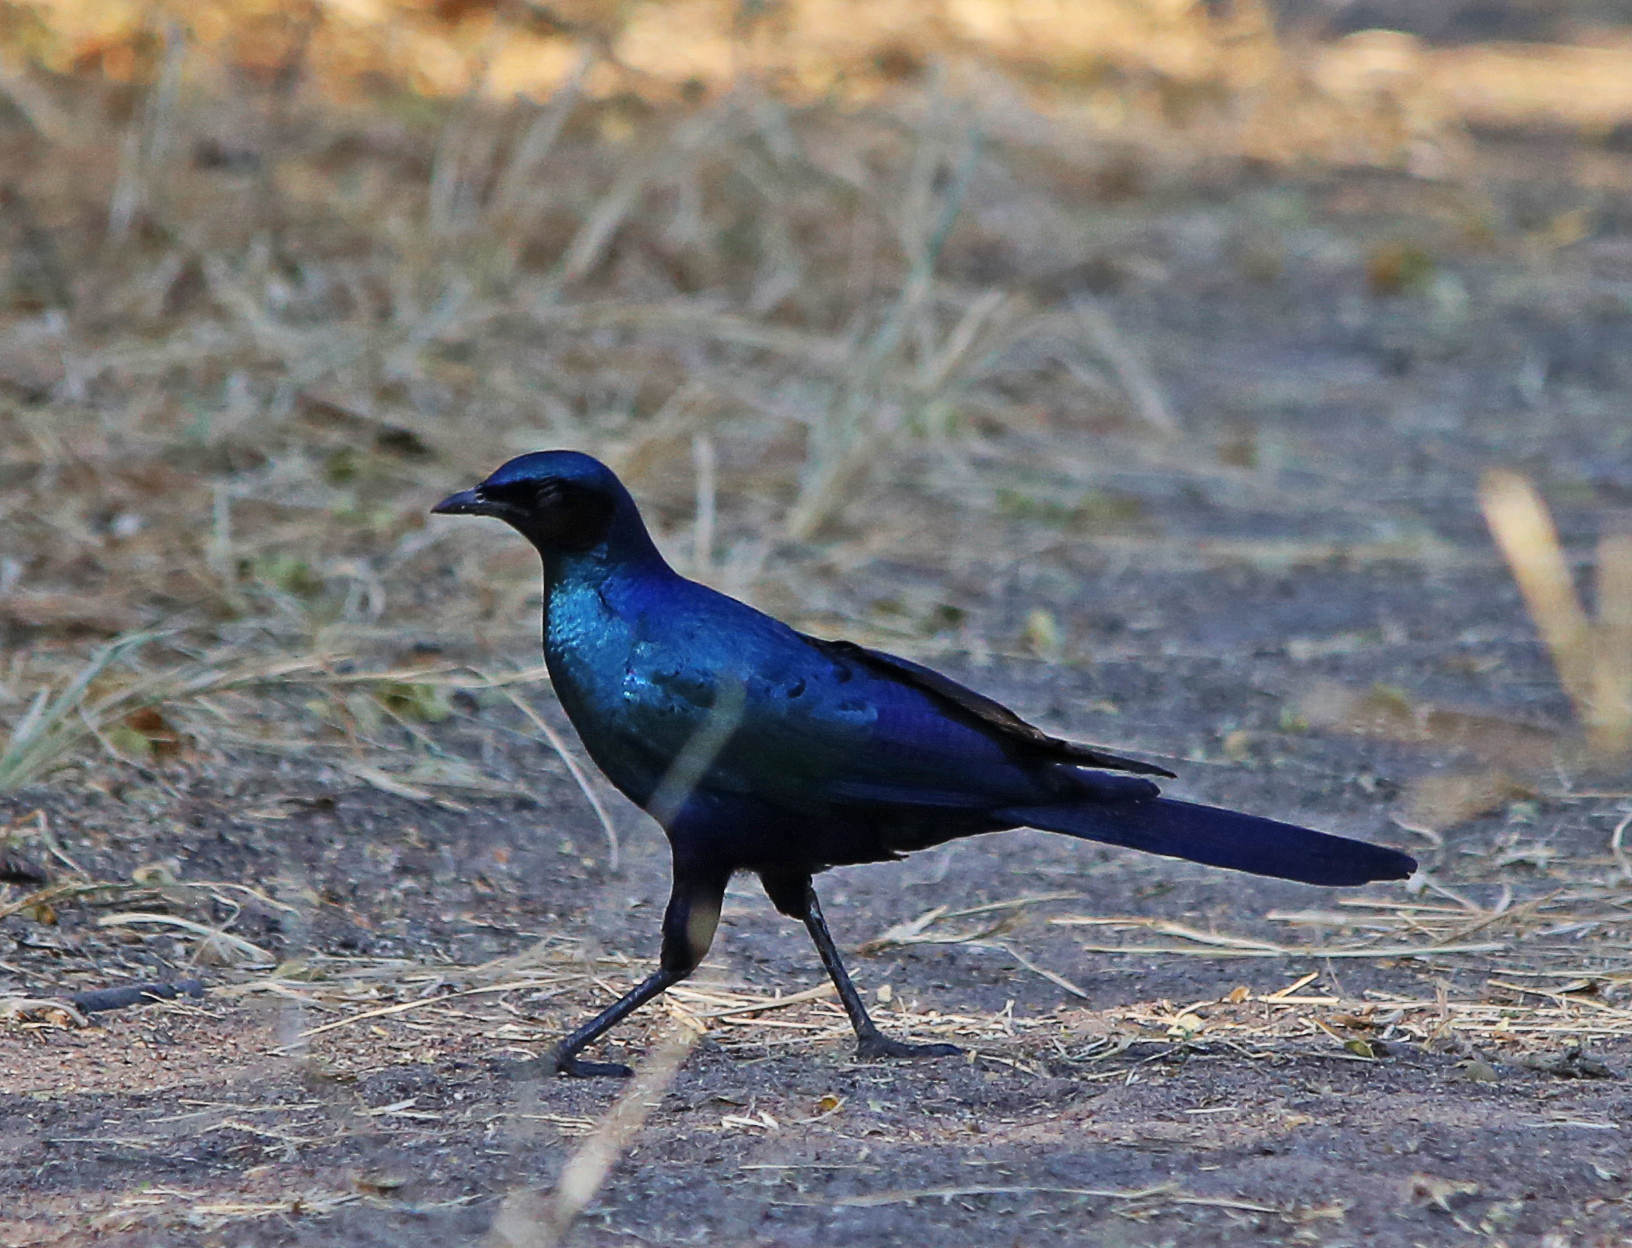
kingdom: Animalia
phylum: Chordata
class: Aves
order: Passeriformes
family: Sturnidae
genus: Lamprotornis
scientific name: Lamprotornis australis
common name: Burchell's starling
